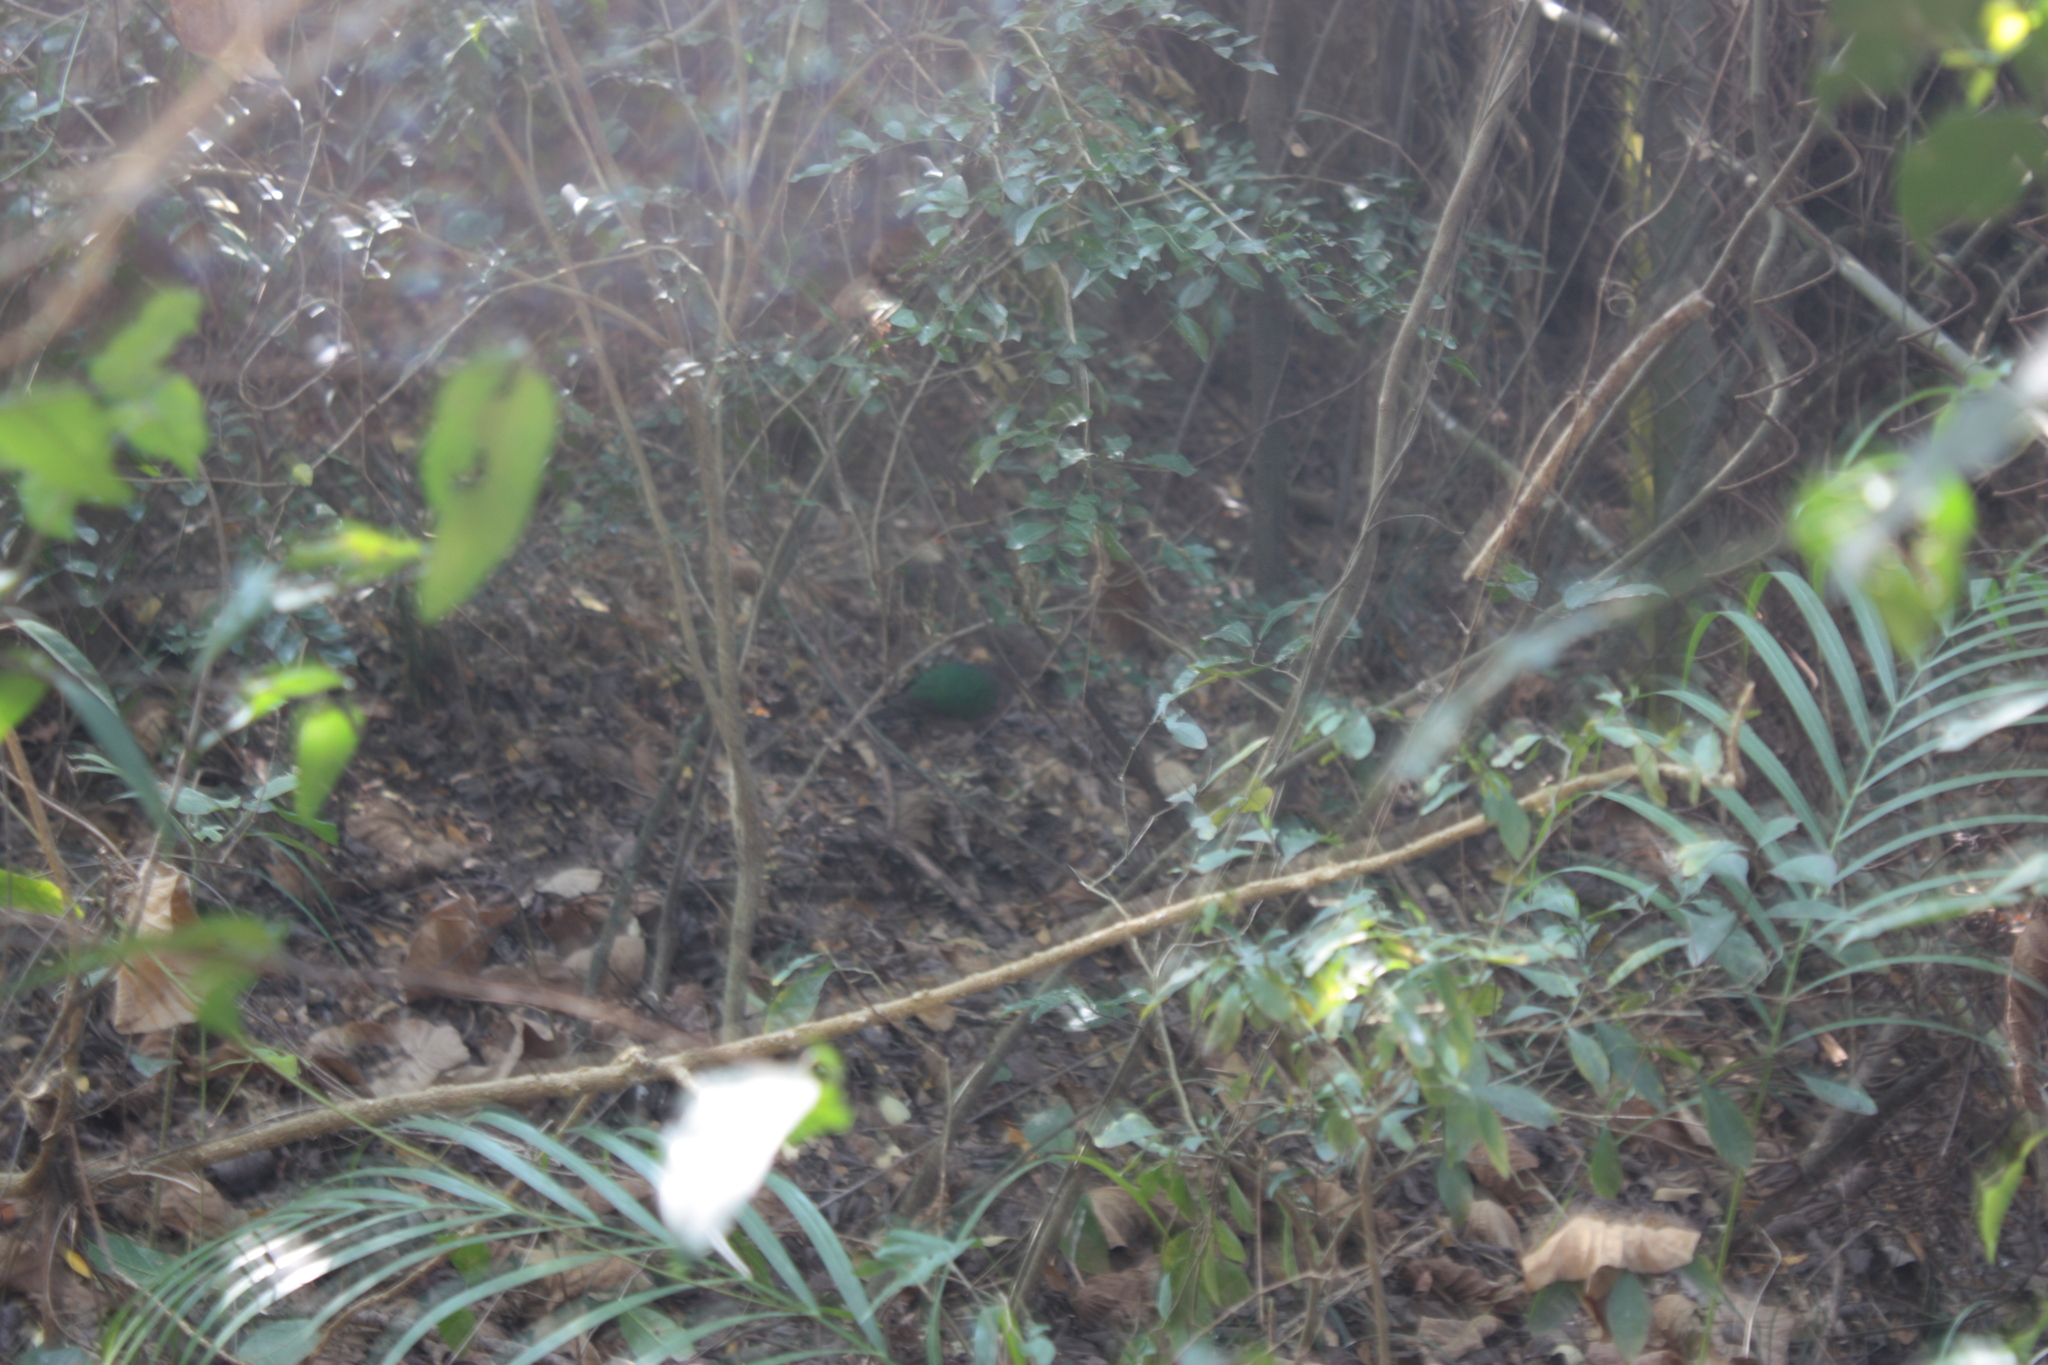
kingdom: Animalia
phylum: Chordata
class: Aves
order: Columbiformes
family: Columbidae
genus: Chalcophaps
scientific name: Chalcophaps indica
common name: Common emerald dove
